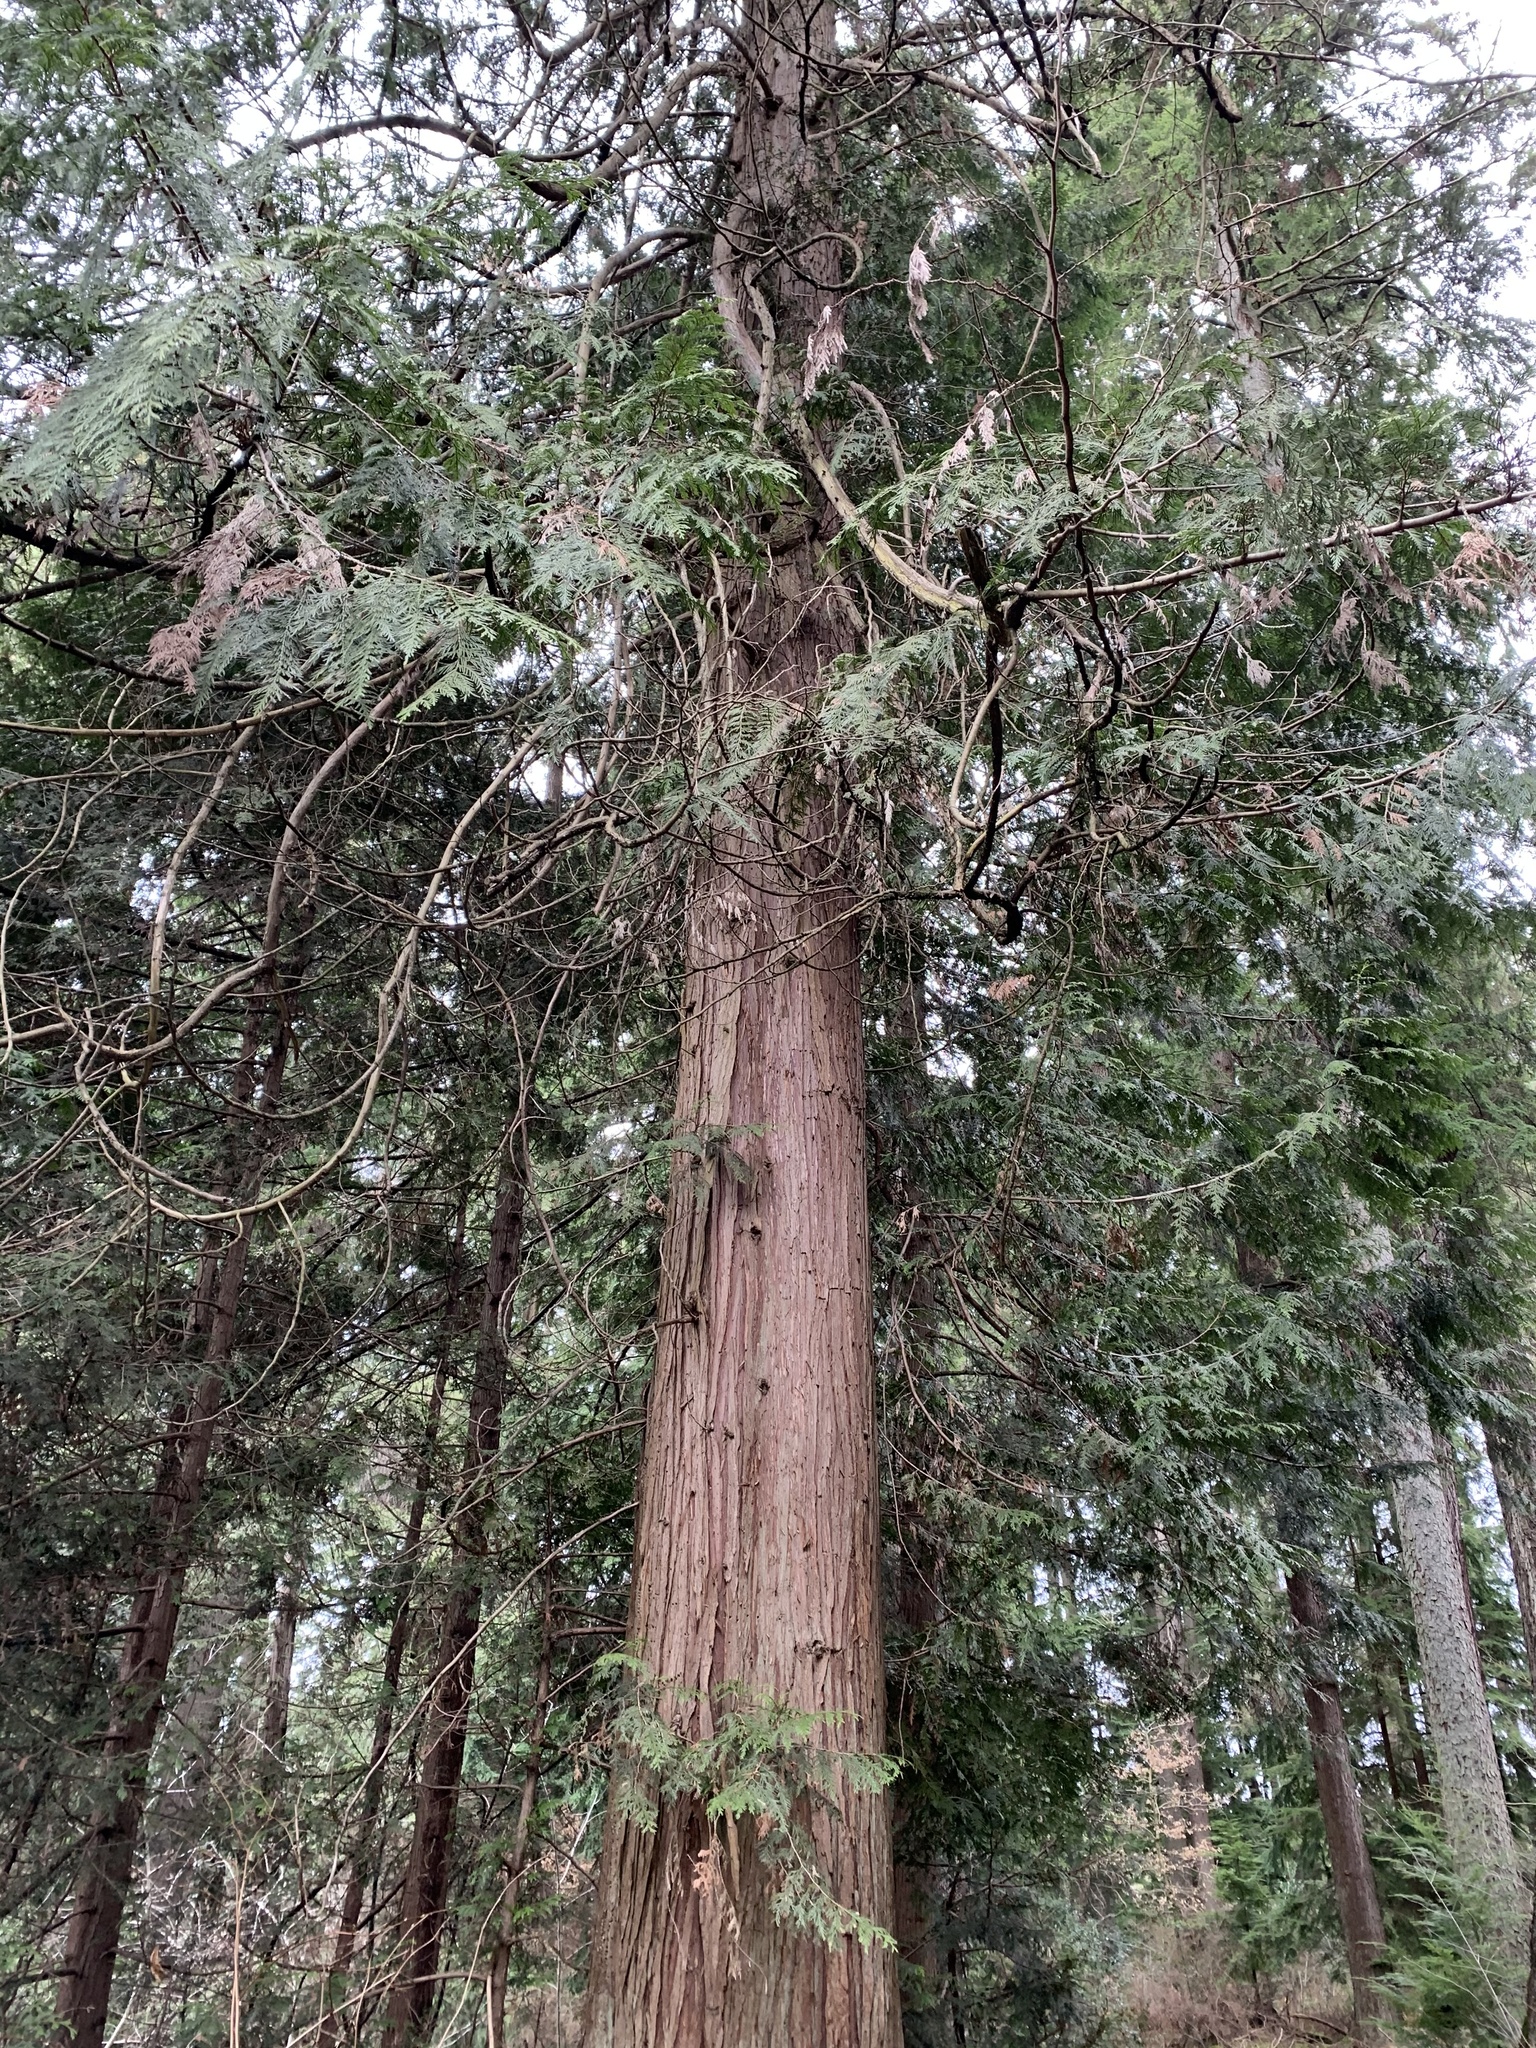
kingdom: Plantae
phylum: Tracheophyta
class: Pinopsida
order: Pinales
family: Cupressaceae
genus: Thuja
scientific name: Thuja plicata
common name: Western red-cedar
